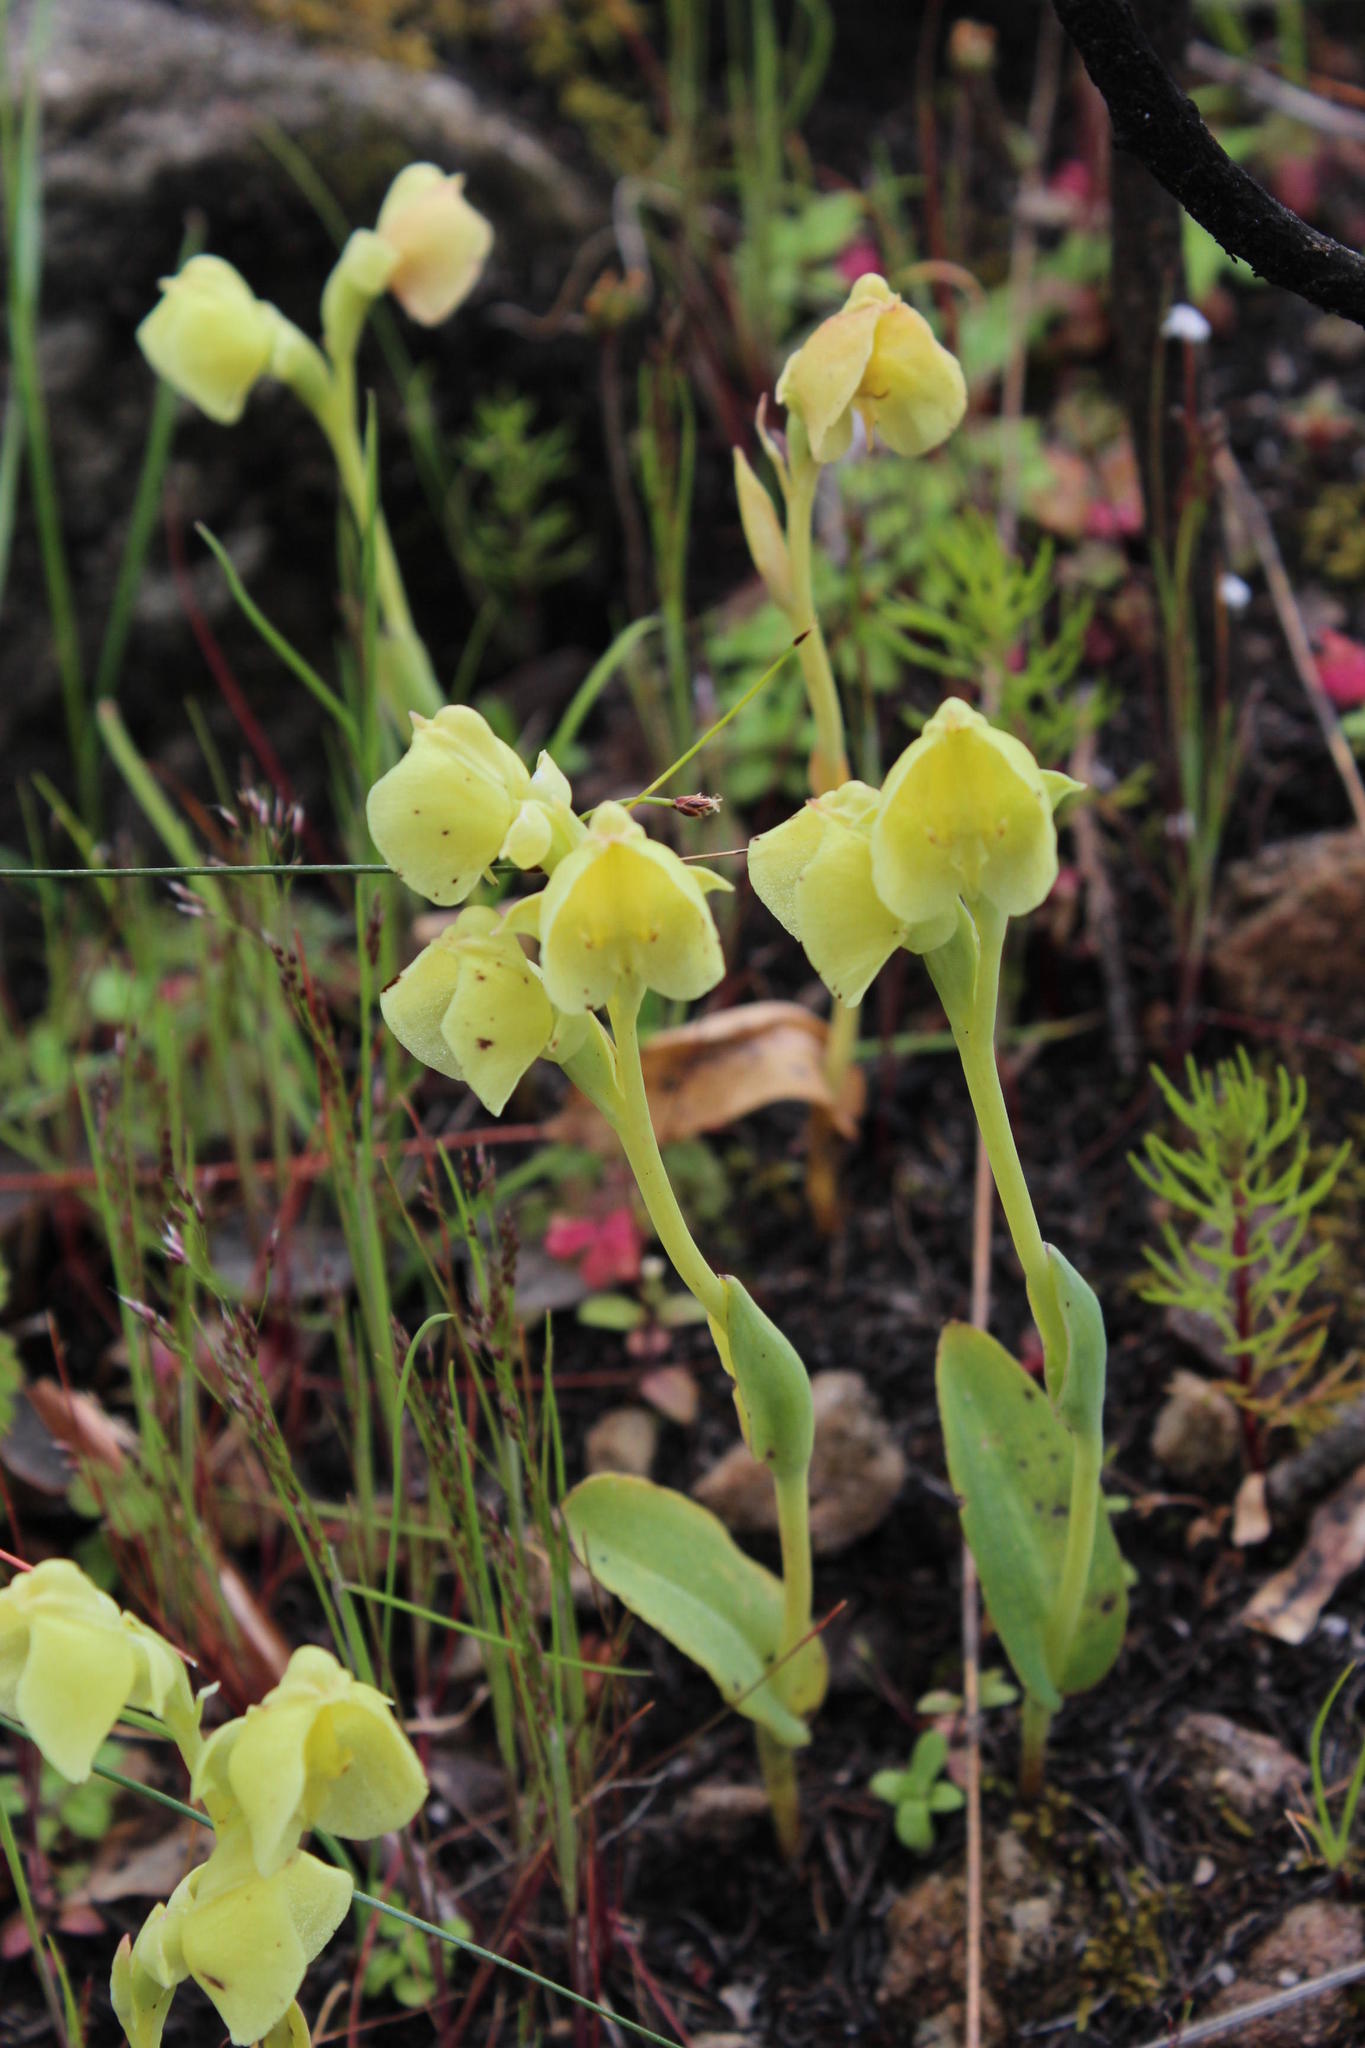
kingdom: Plantae
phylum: Tracheophyta
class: Liliopsida
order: Asparagales
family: Orchidaceae
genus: Pterygodium
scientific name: Pterygodium catholicum
